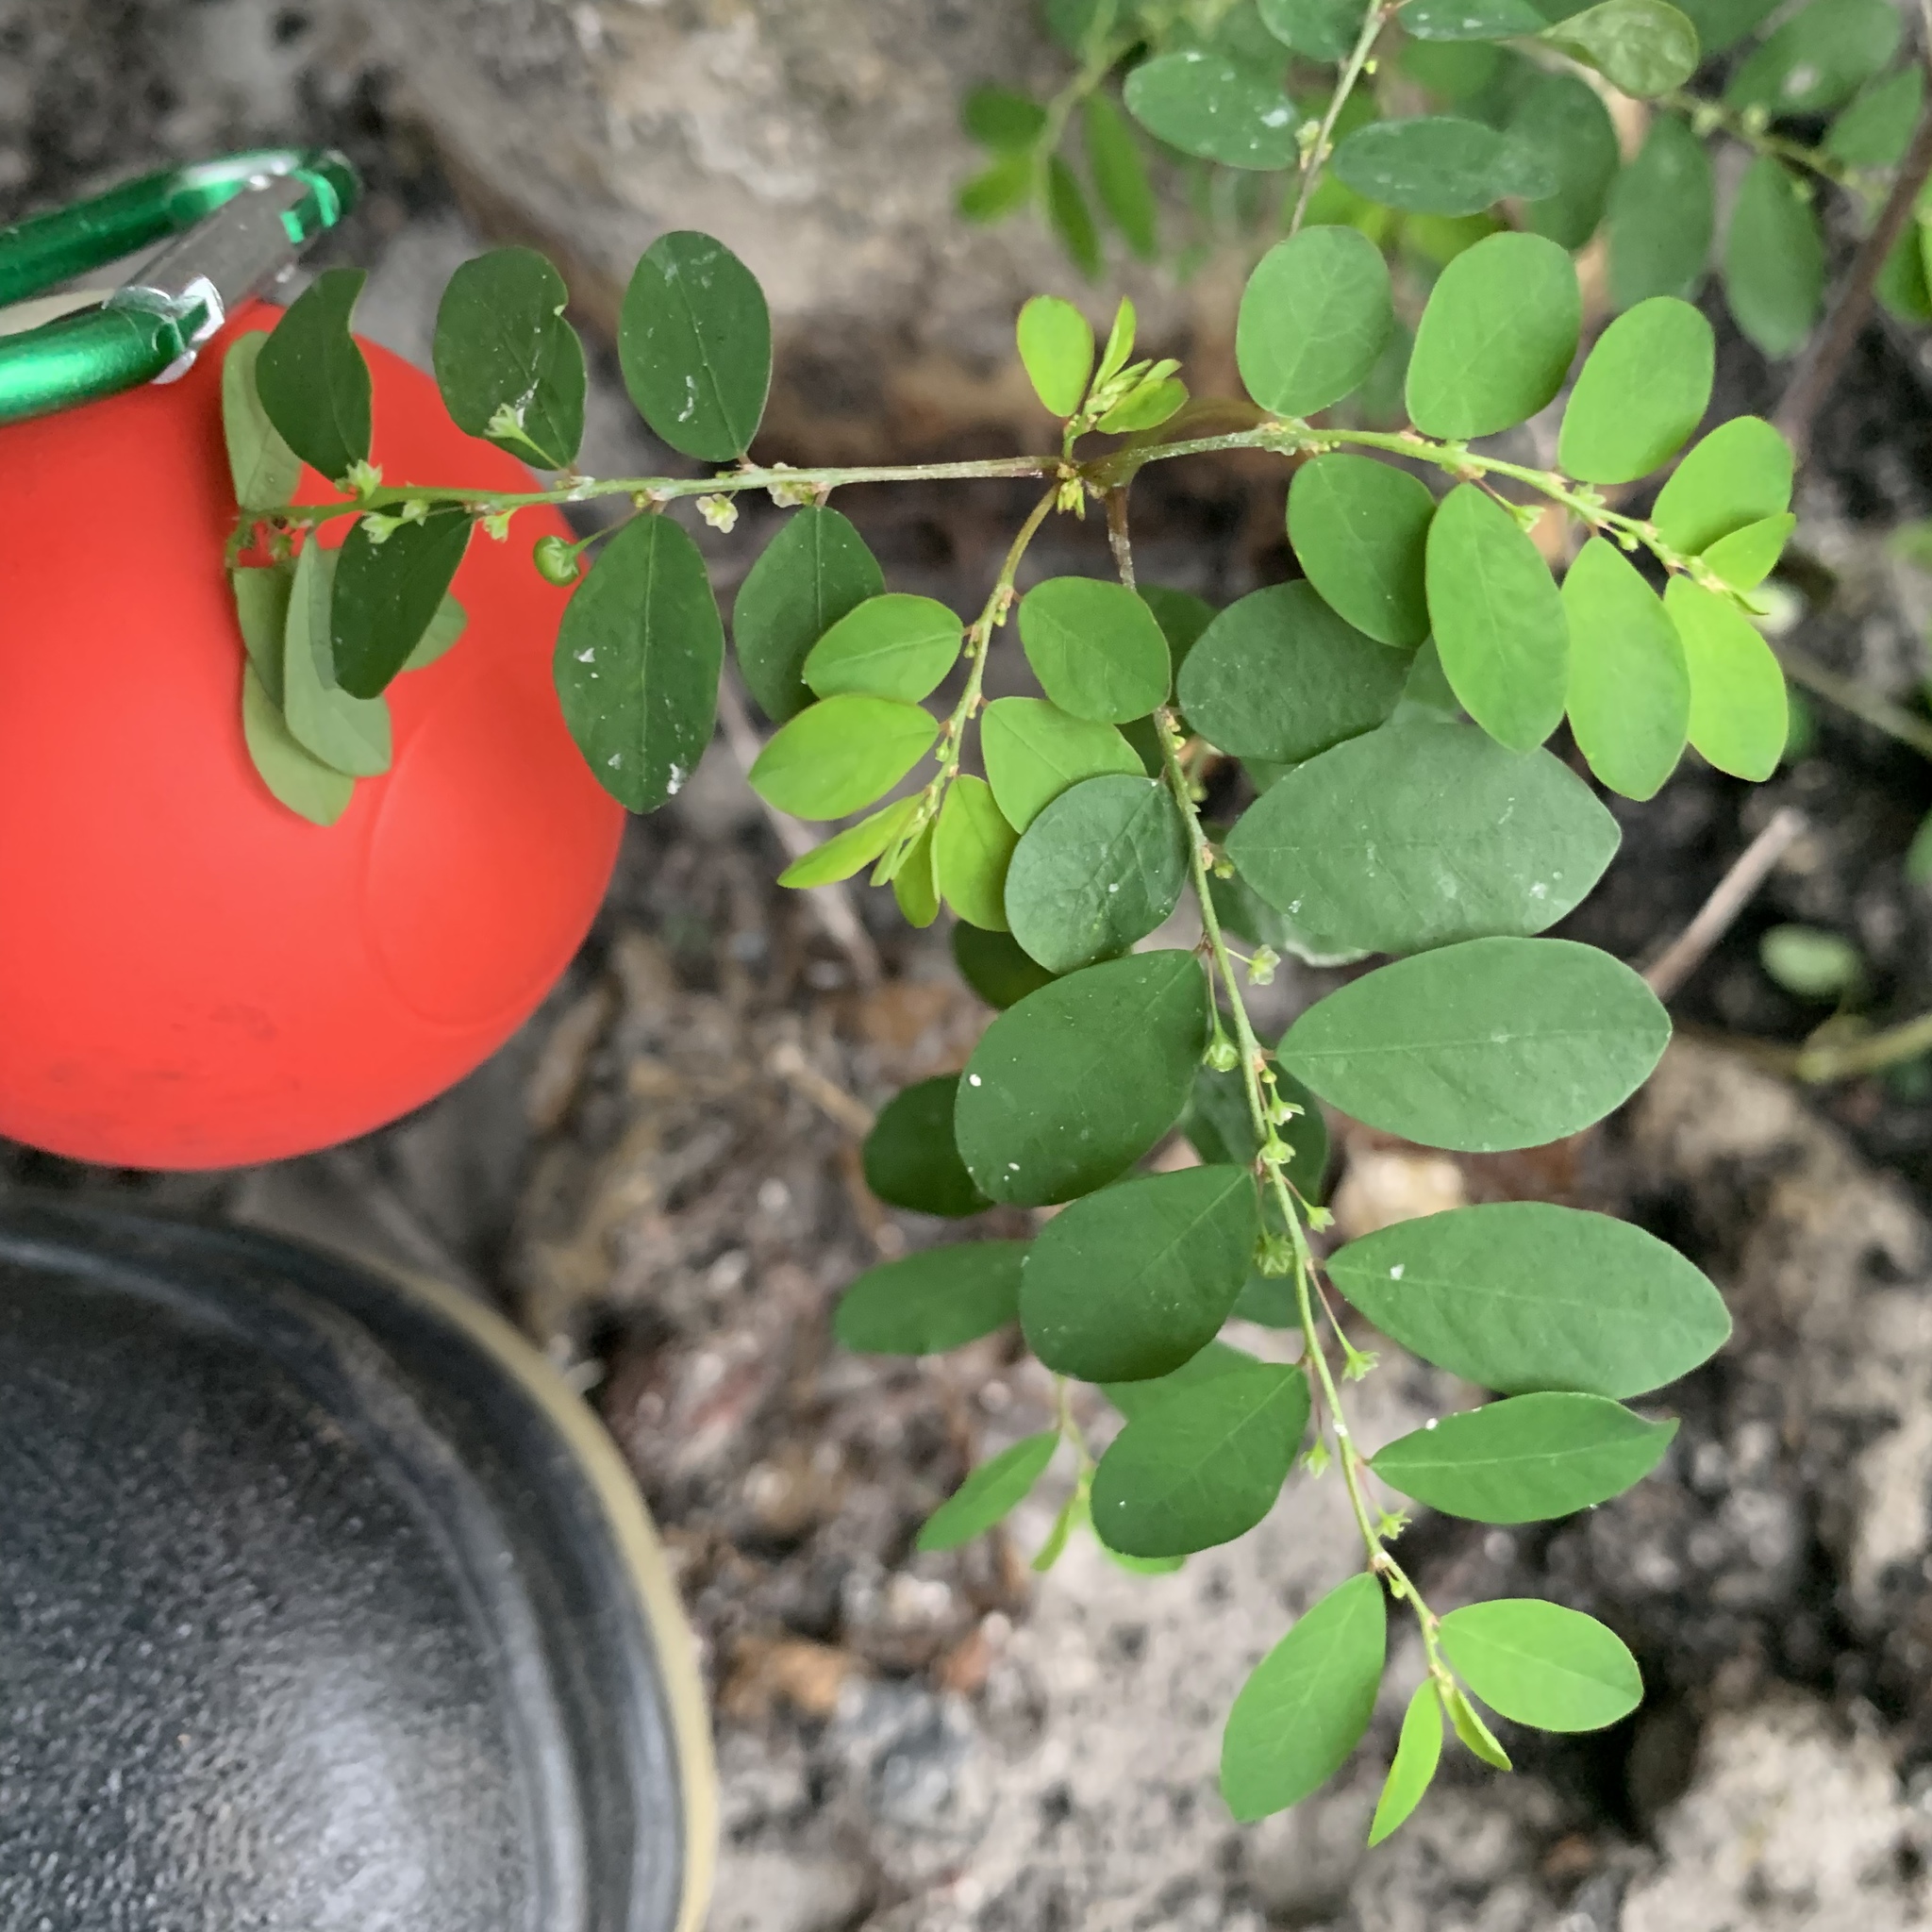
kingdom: Plantae
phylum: Tracheophyta
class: Magnoliopsida
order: Malpighiales
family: Phyllanthaceae
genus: Phyllanthus
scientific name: Phyllanthus tenellus
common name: Mascarene island leaf-flower
